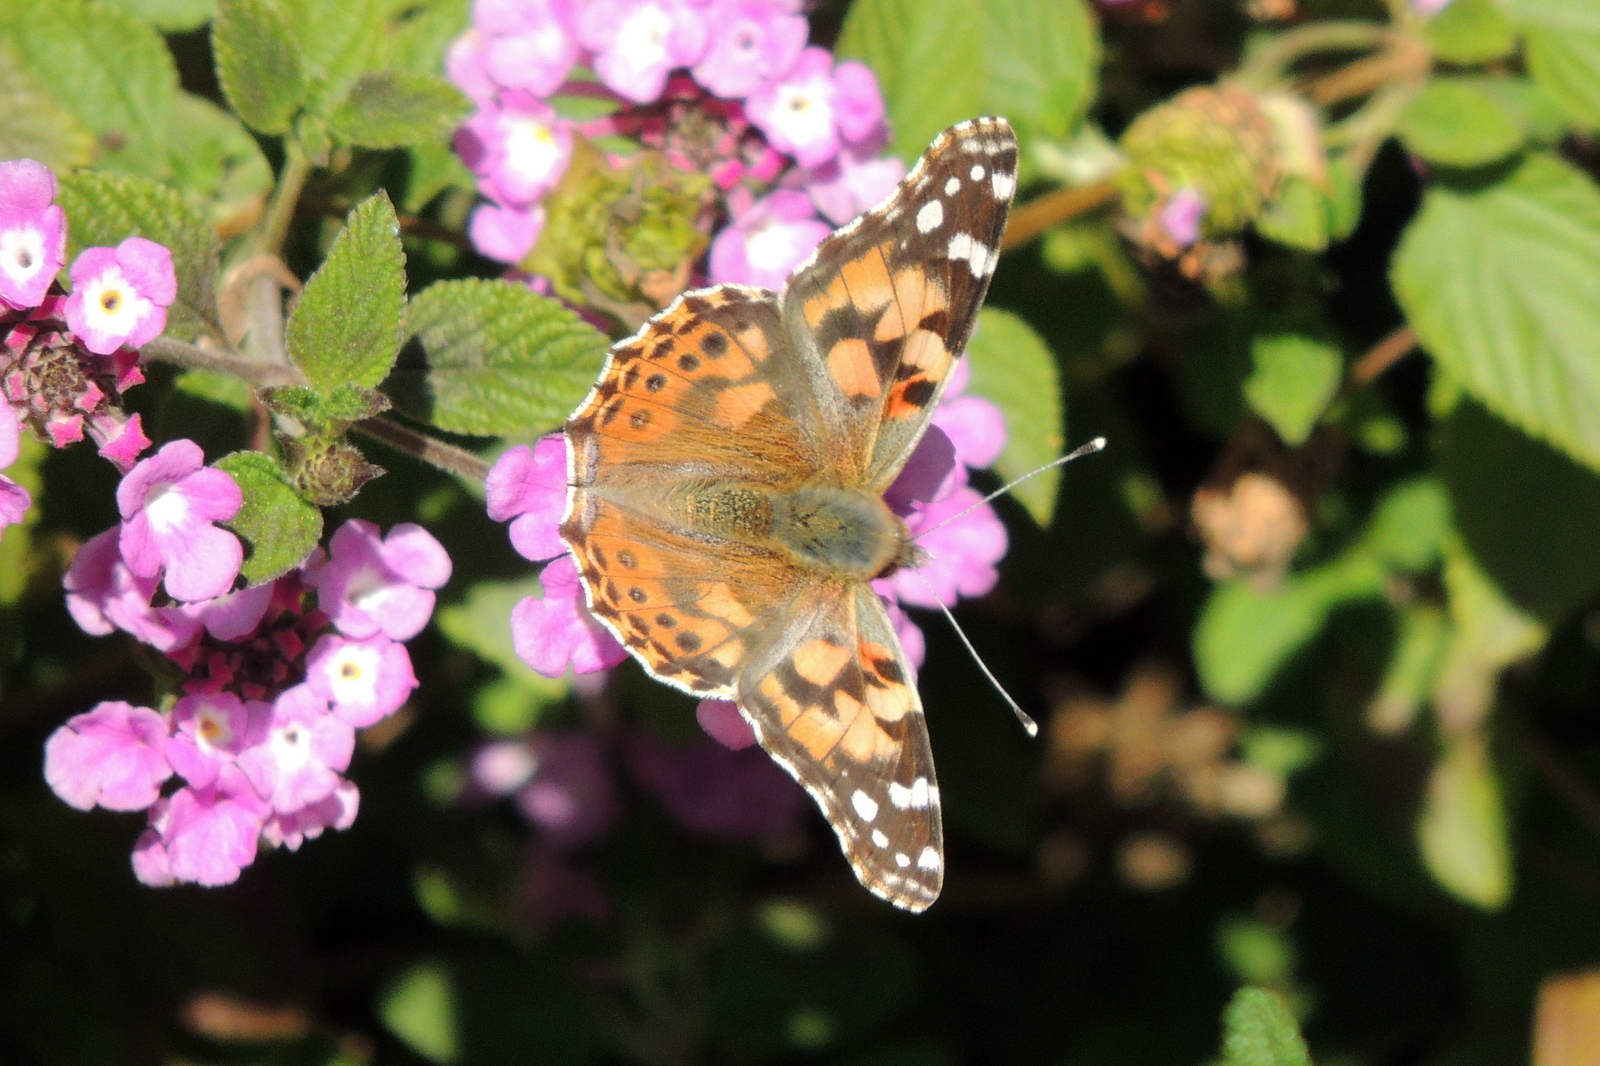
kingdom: Animalia
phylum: Arthropoda
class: Insecta
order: Lepidoptera
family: Nymphalidae
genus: Vanessa
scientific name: Vanessa cardui
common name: Painted lady
